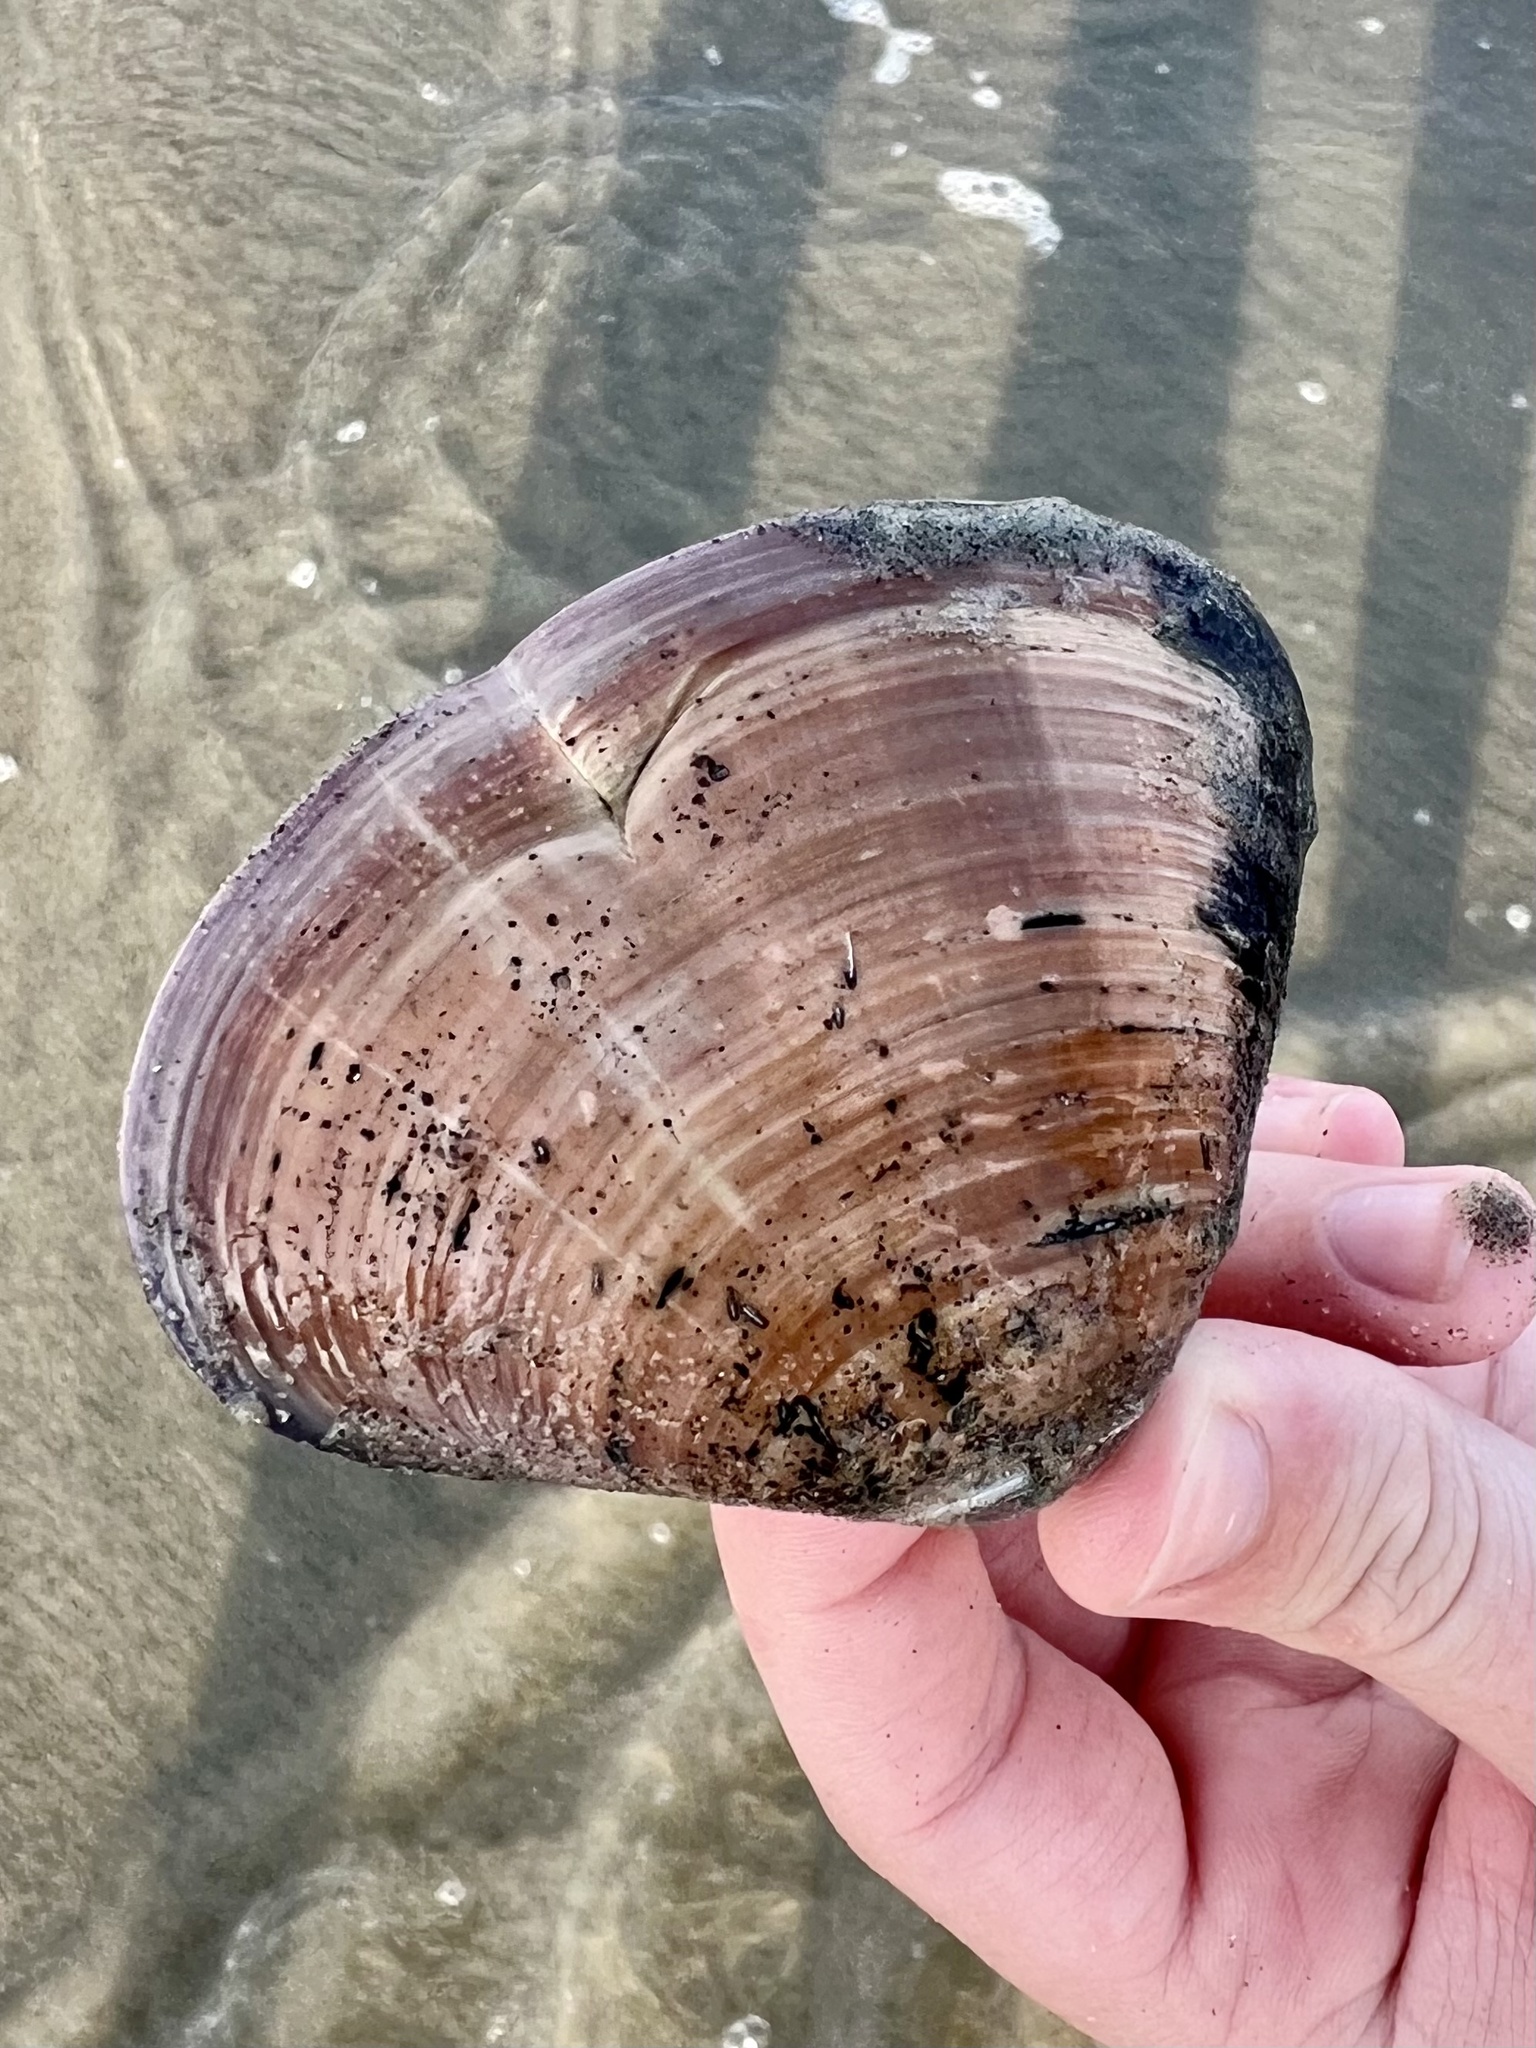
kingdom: Animalia
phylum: Mollusca
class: Bivalvia
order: Venerida
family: Veneridae
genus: Tivela
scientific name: Tivela stultorum
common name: Pismo clam
